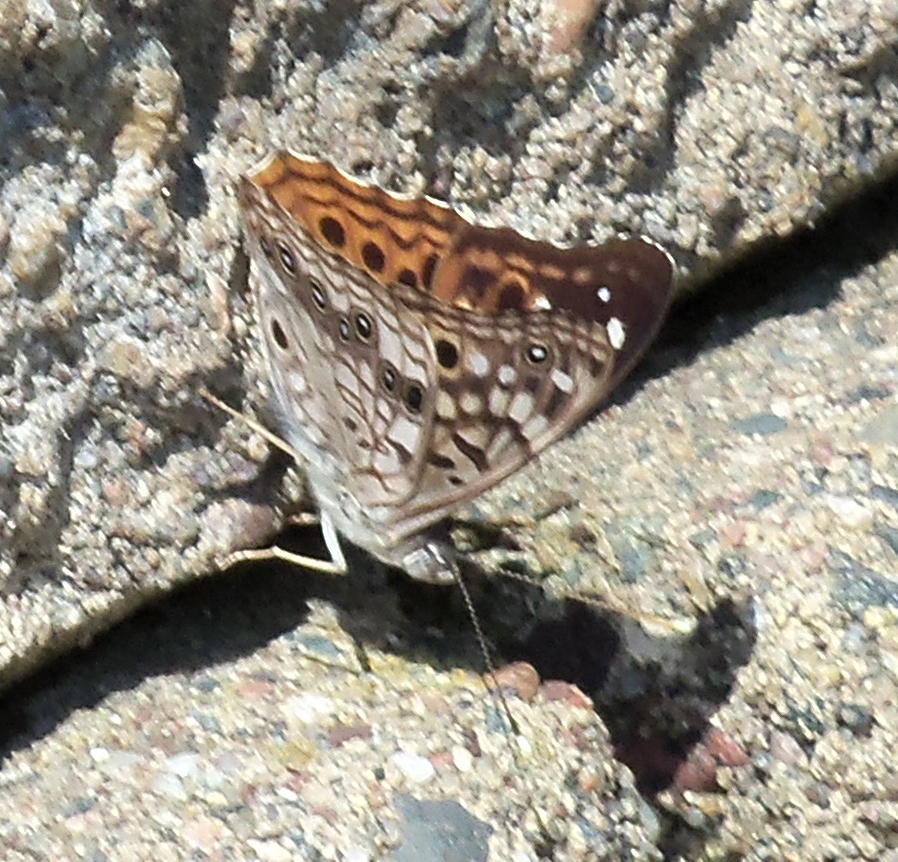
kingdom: Animalia
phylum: Arthropoda
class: Insecta
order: Lepidoptera
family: Nymphalidae
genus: Asterocampa
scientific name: Asterocampa celtis
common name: Hackberry emperor
